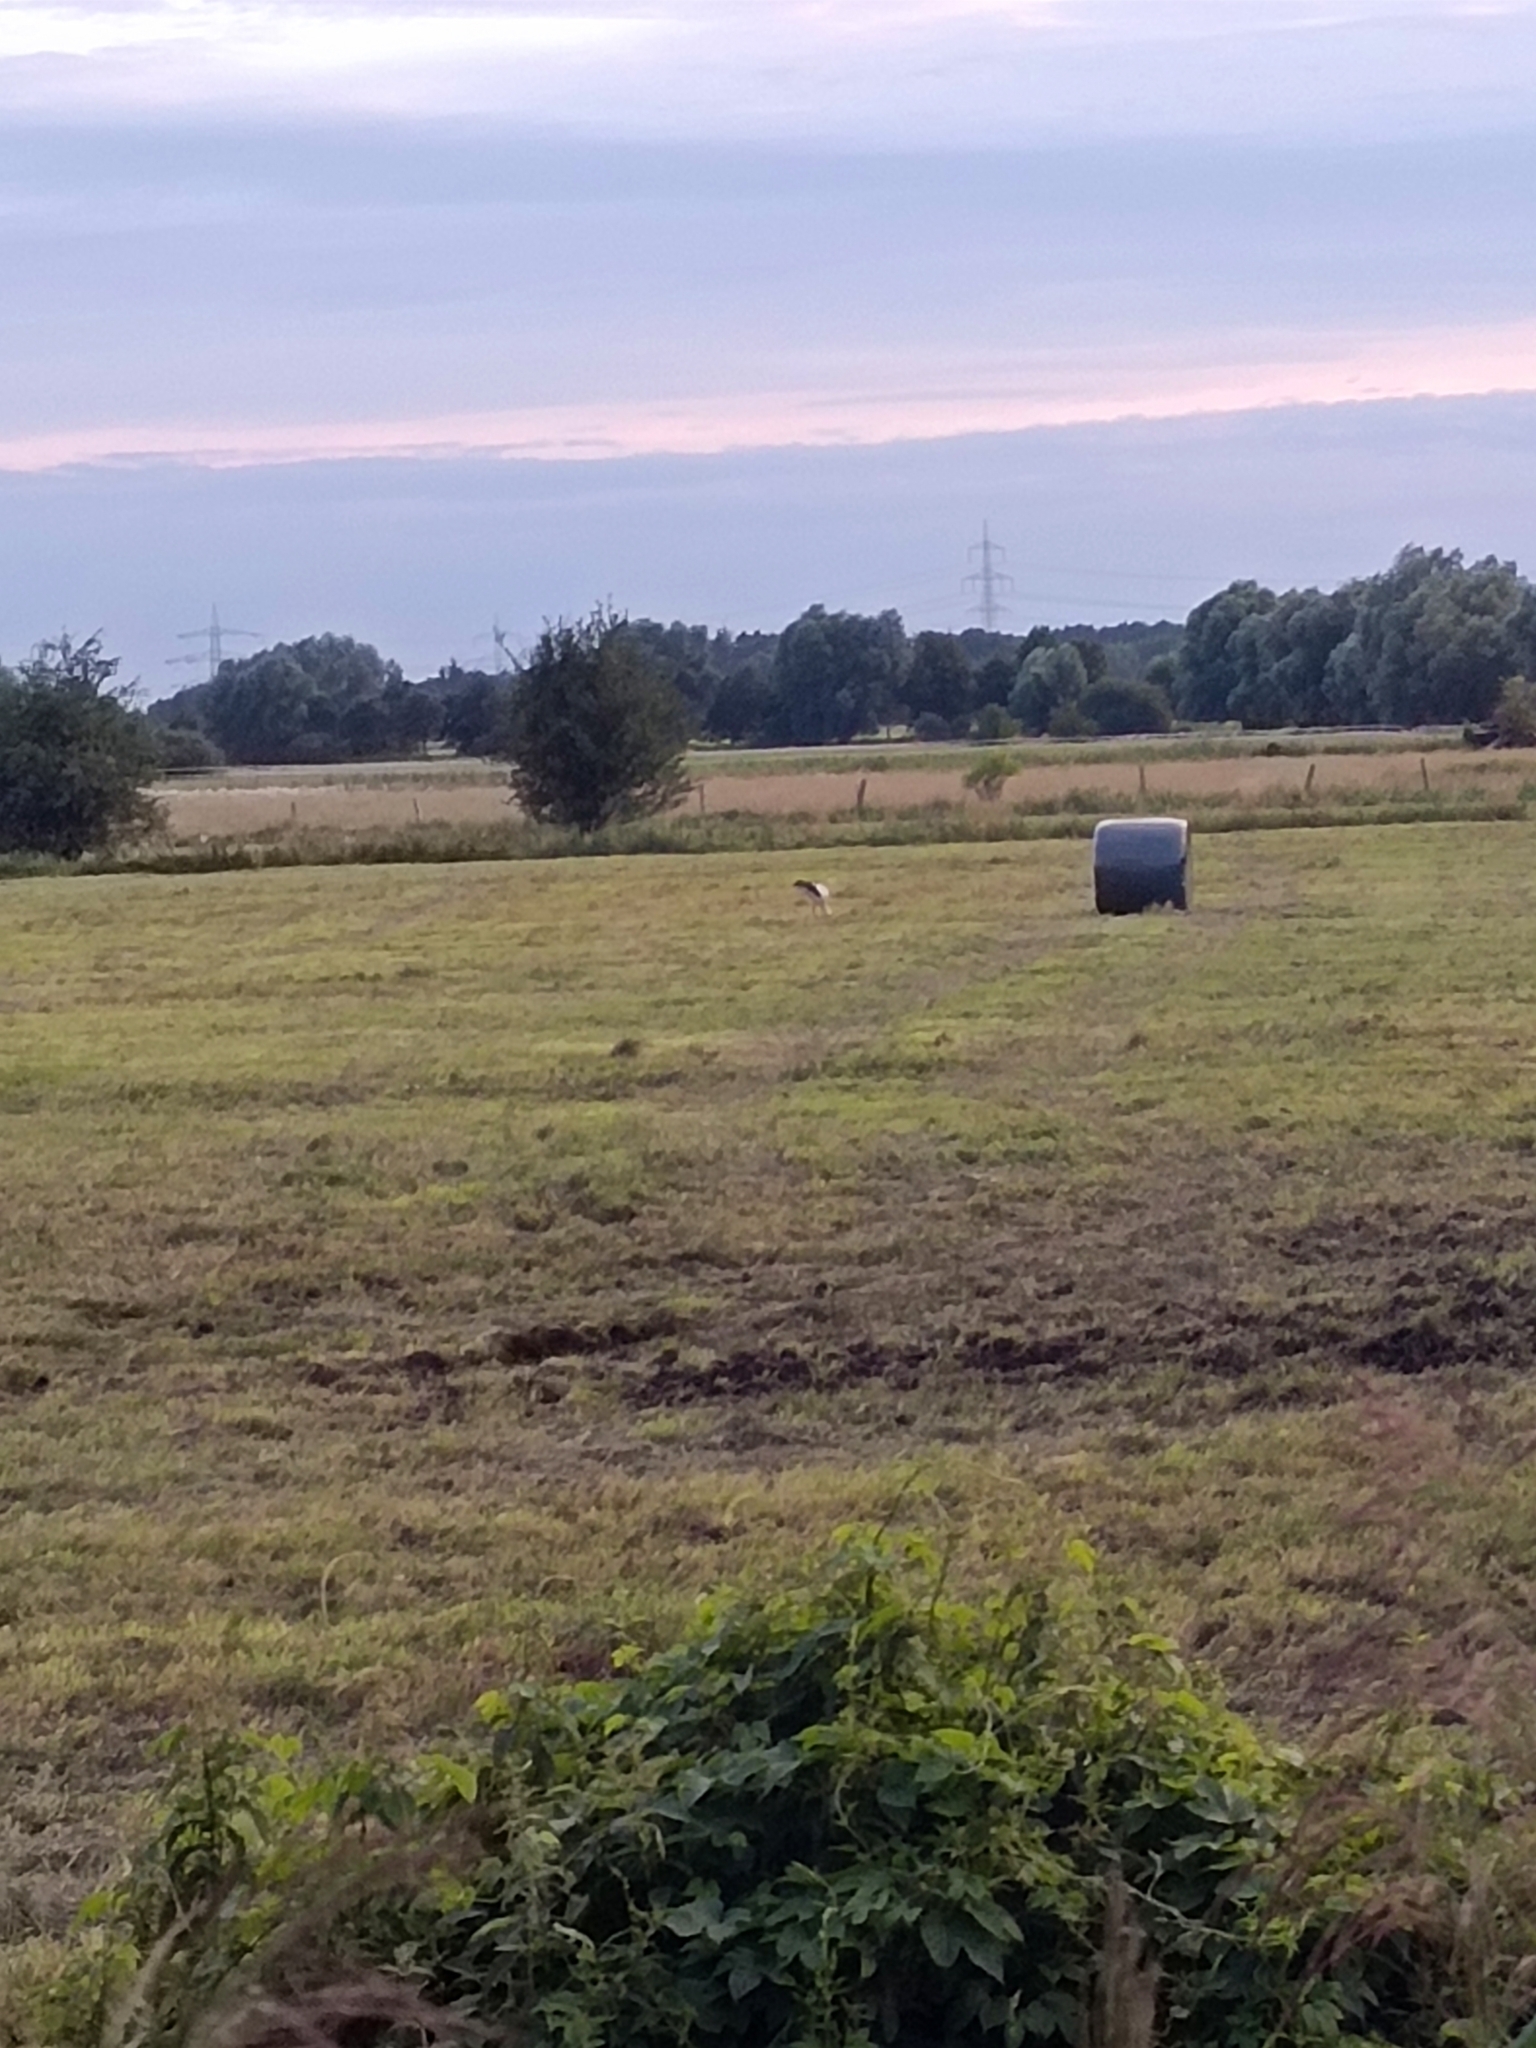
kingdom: Animalia
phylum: Chordata
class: Aves
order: Ciconiiformes
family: Ciconiidae
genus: Ciconia
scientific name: Ciconia ciconia
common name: White stork
